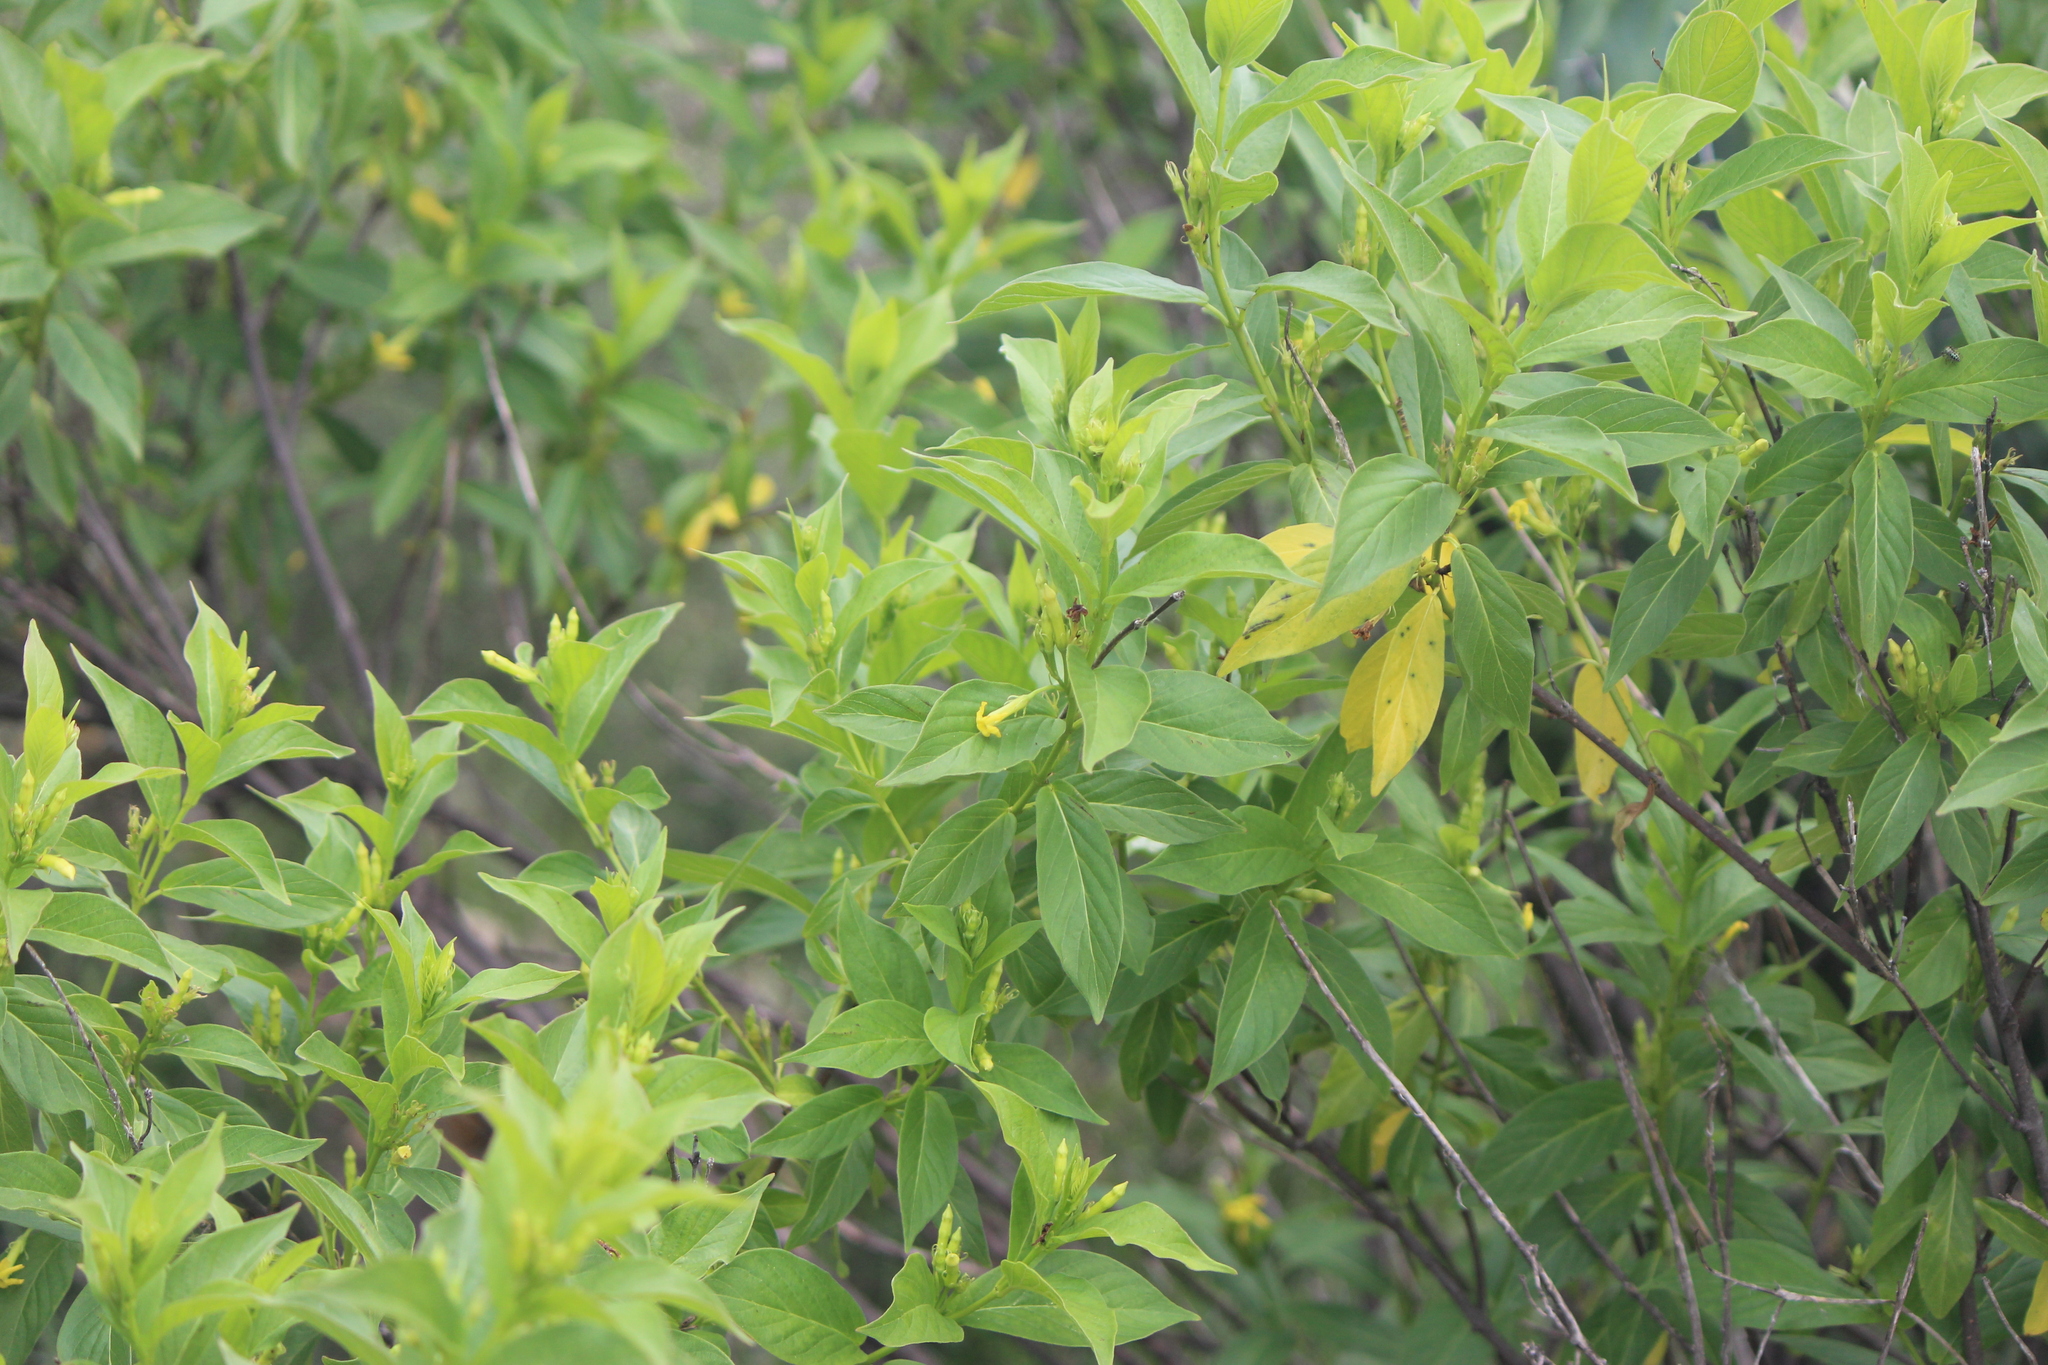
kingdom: Plantae
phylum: Tracheophyta
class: Magnoliopsida
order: Gentianales
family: Apocynaceae
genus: Mandevilla
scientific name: Mandevilla foliosa
